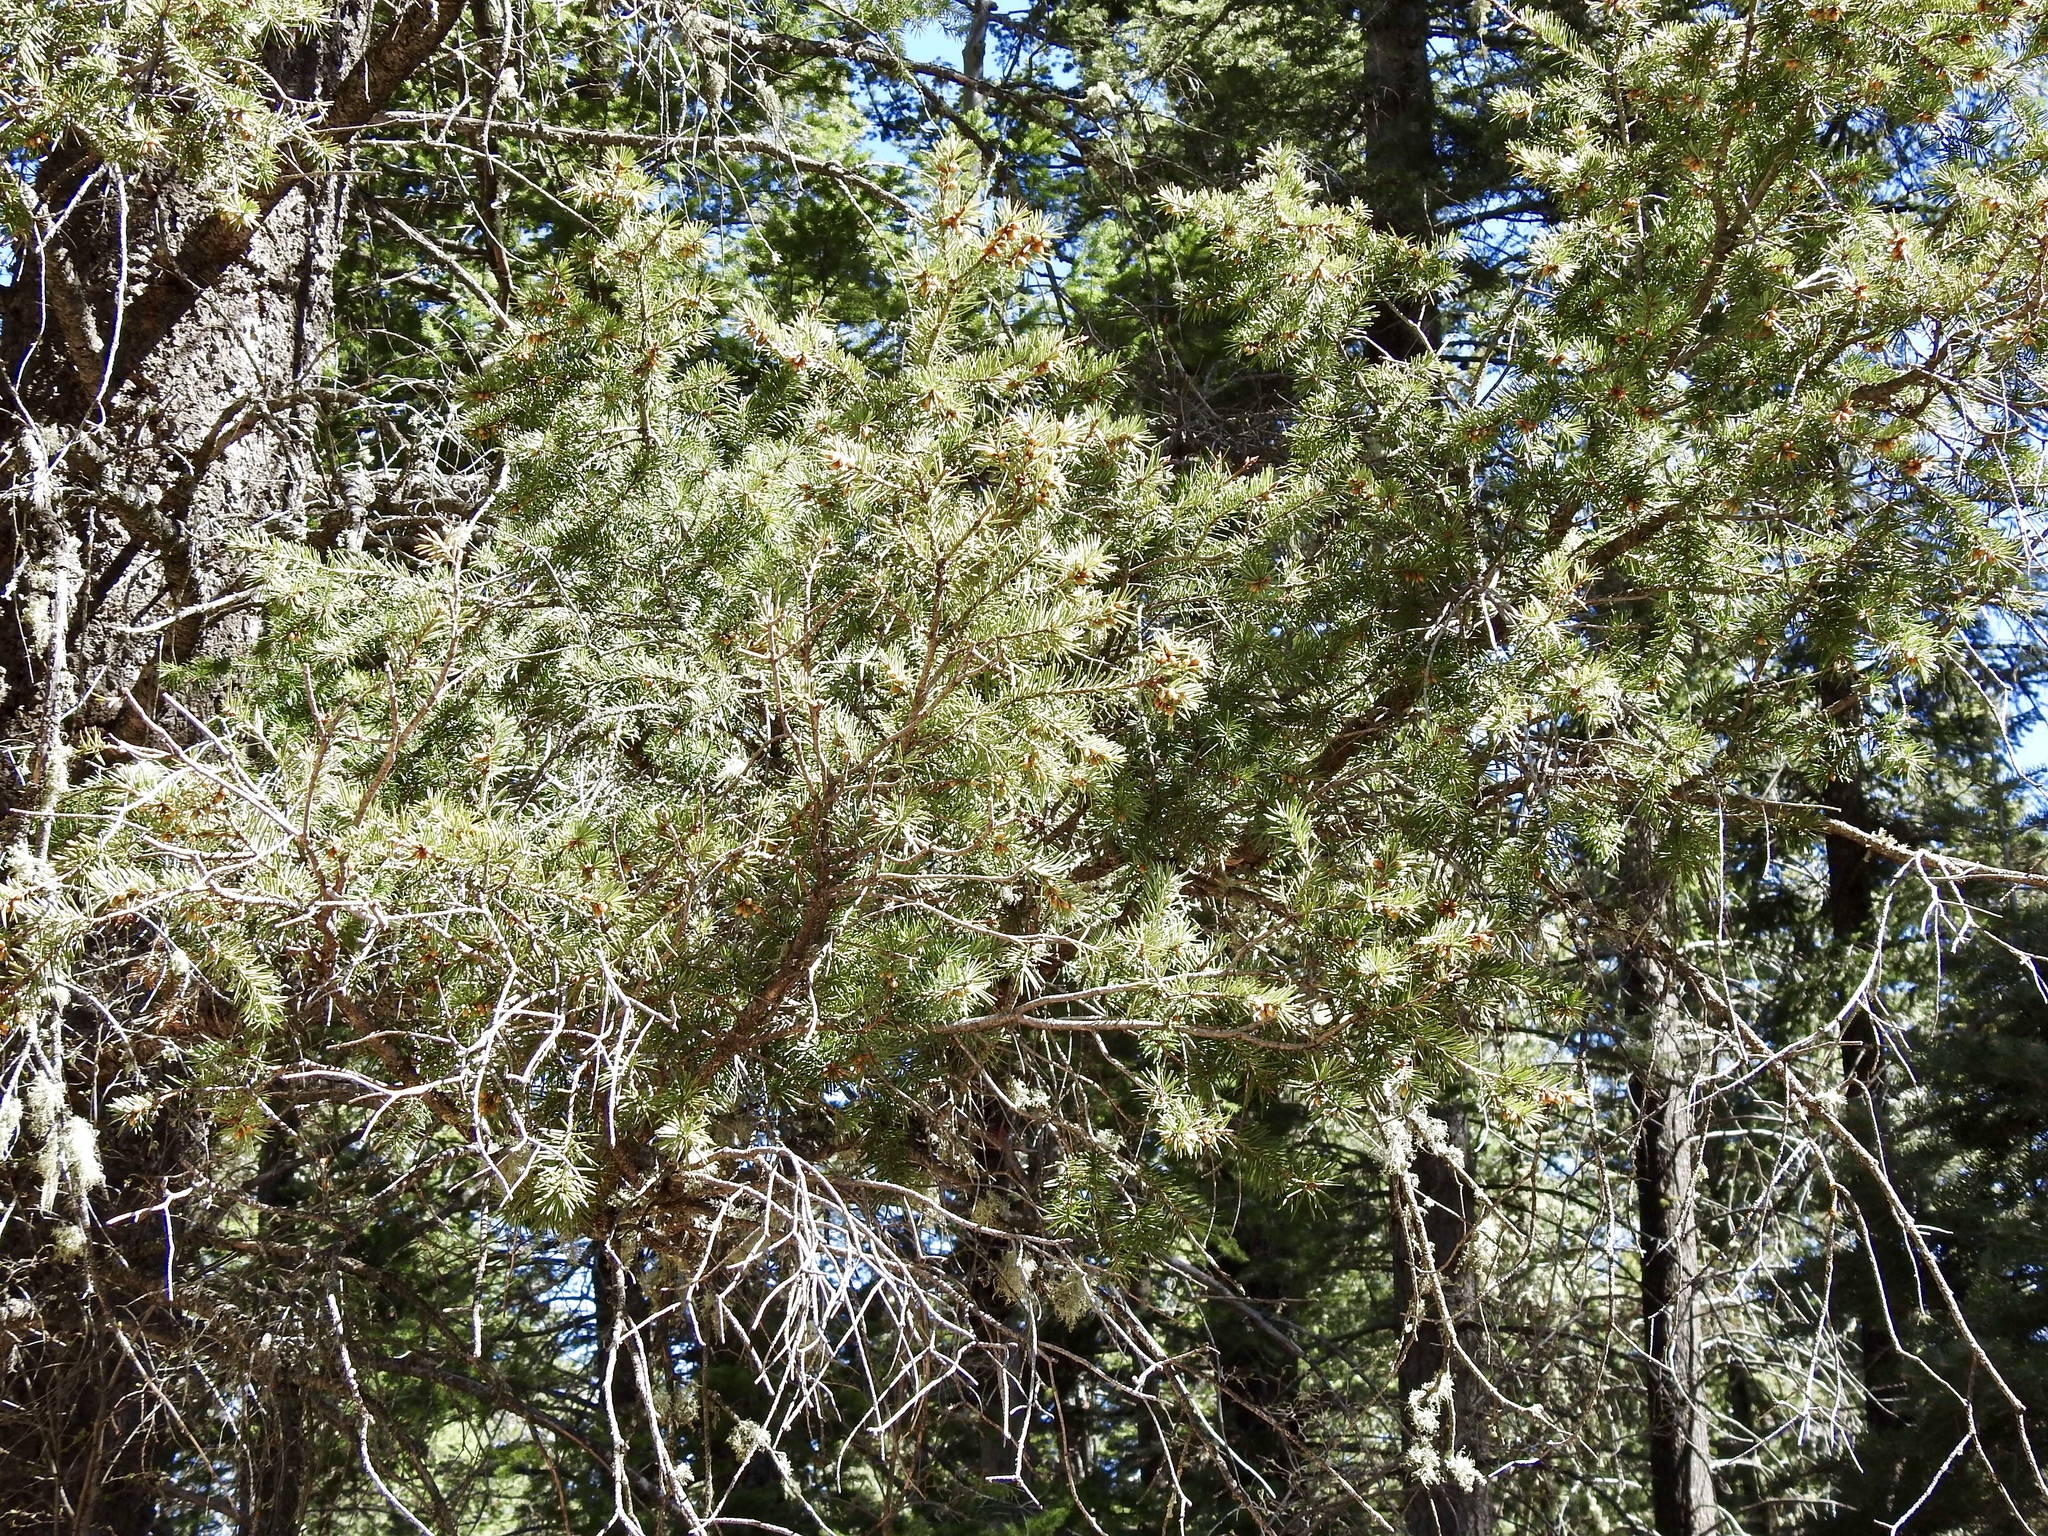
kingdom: Plantae
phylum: Tracheophyta
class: Pinopsida
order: Pinales
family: Pinaceae
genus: Pseudotsuga
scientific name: Pseudotsuga menziesii
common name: Douglas fir
